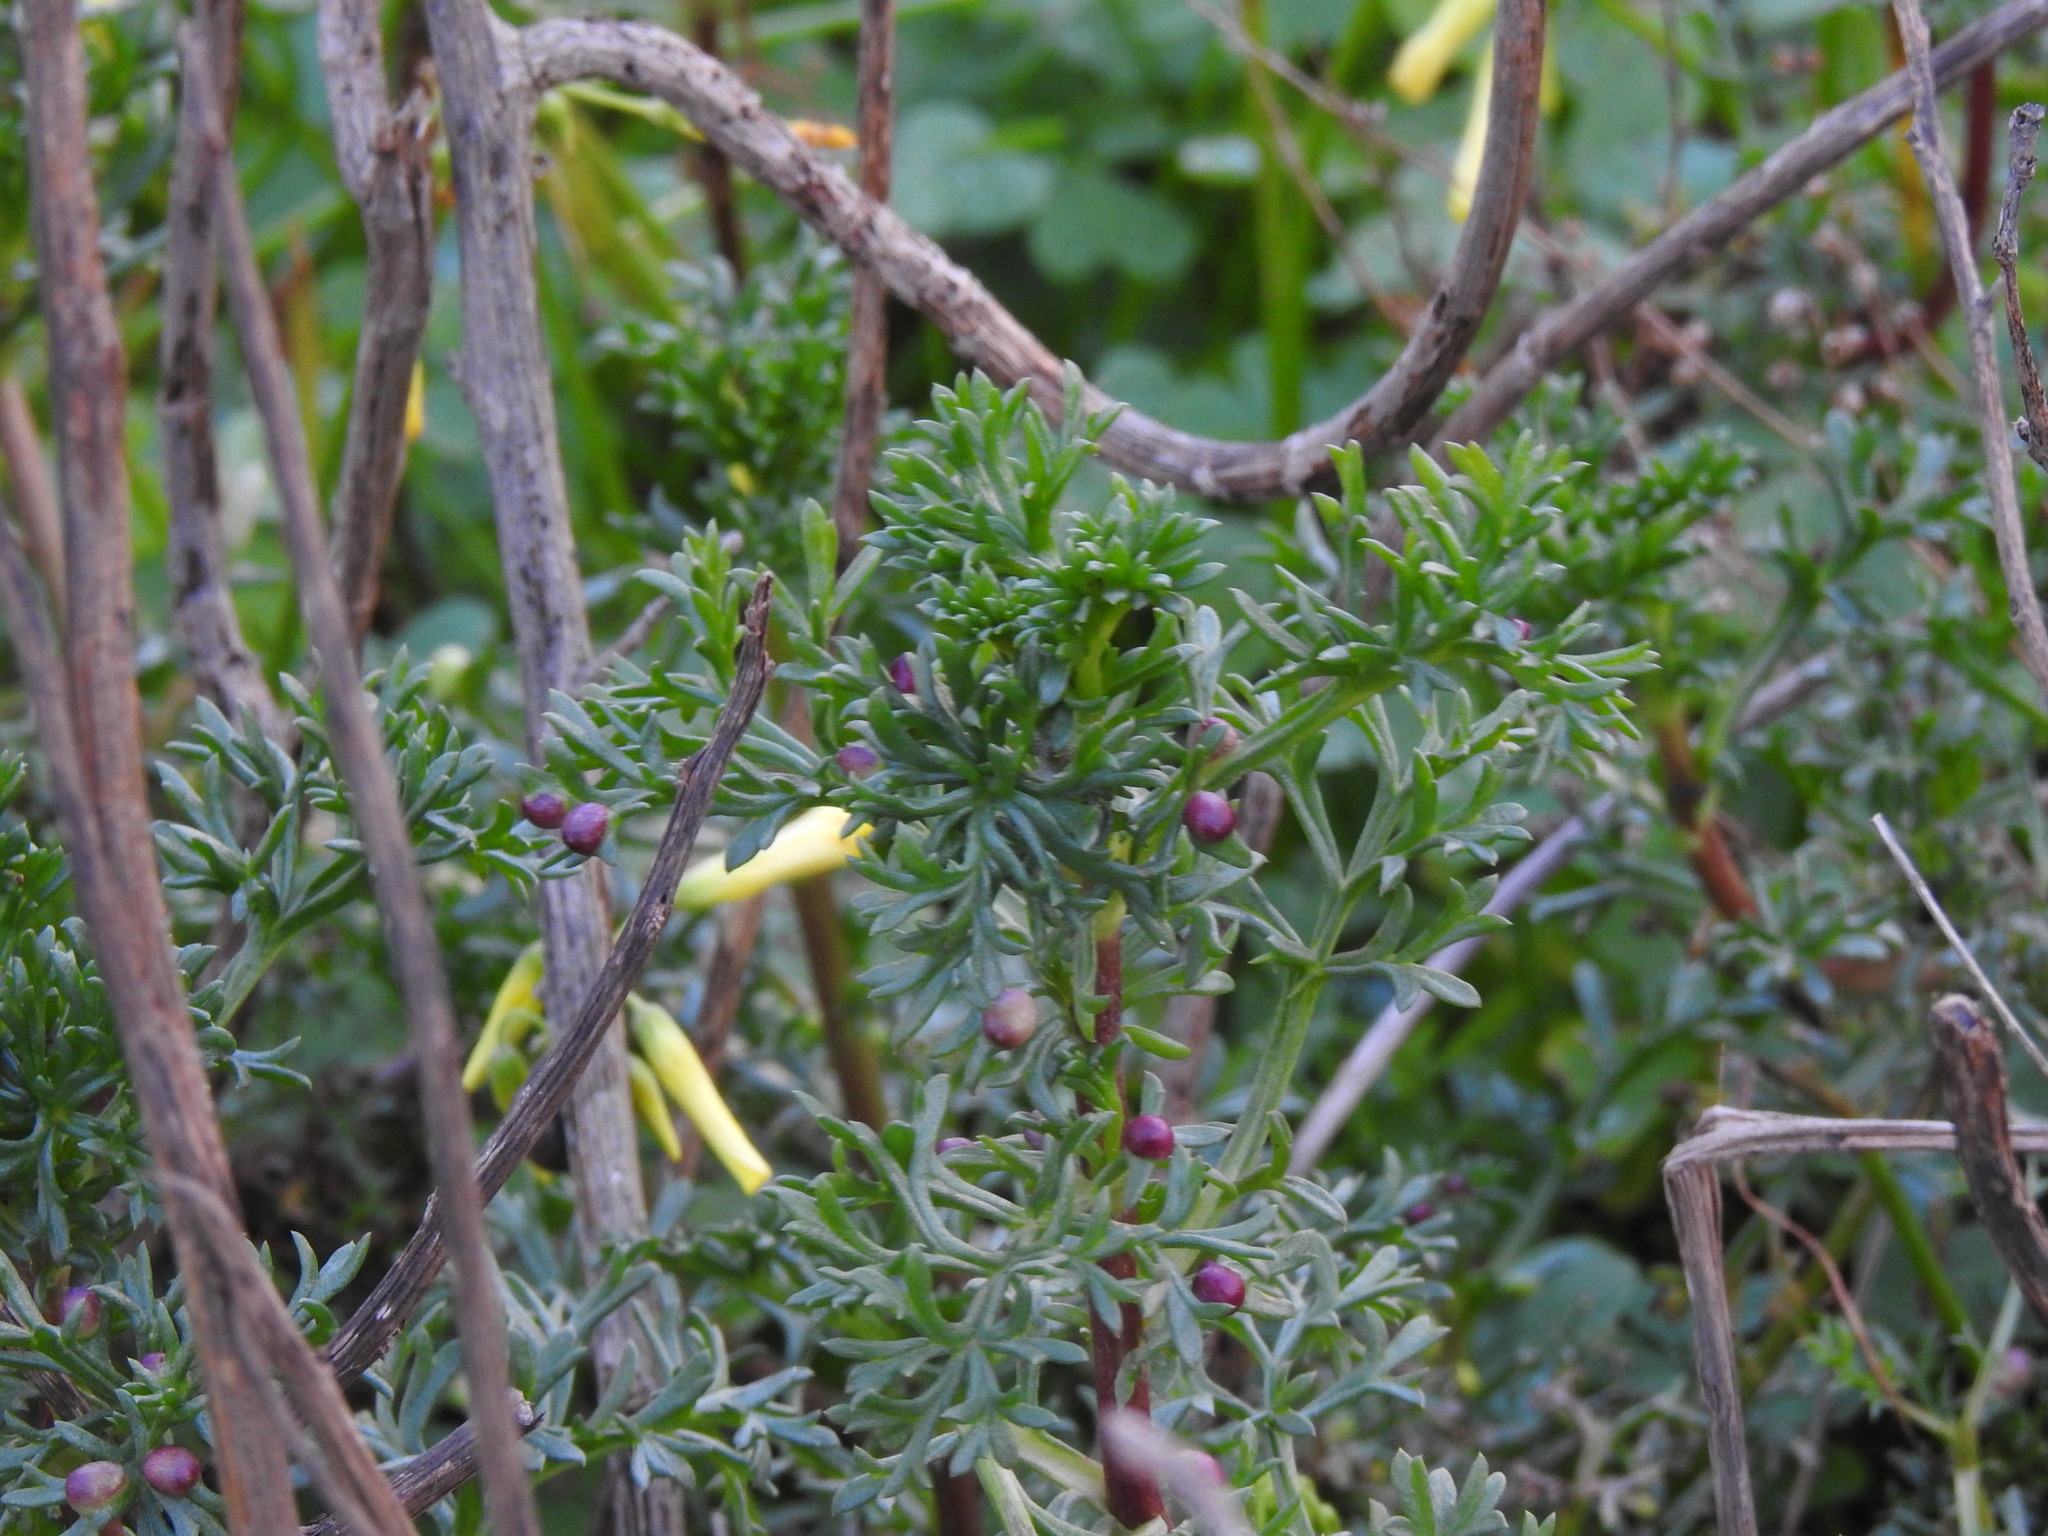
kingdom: Animalia
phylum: Arthropoda
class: Insecta
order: Diptera
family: Cecidomyiidae
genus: Rhopalomyia
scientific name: Rhopalomyia baccarum
